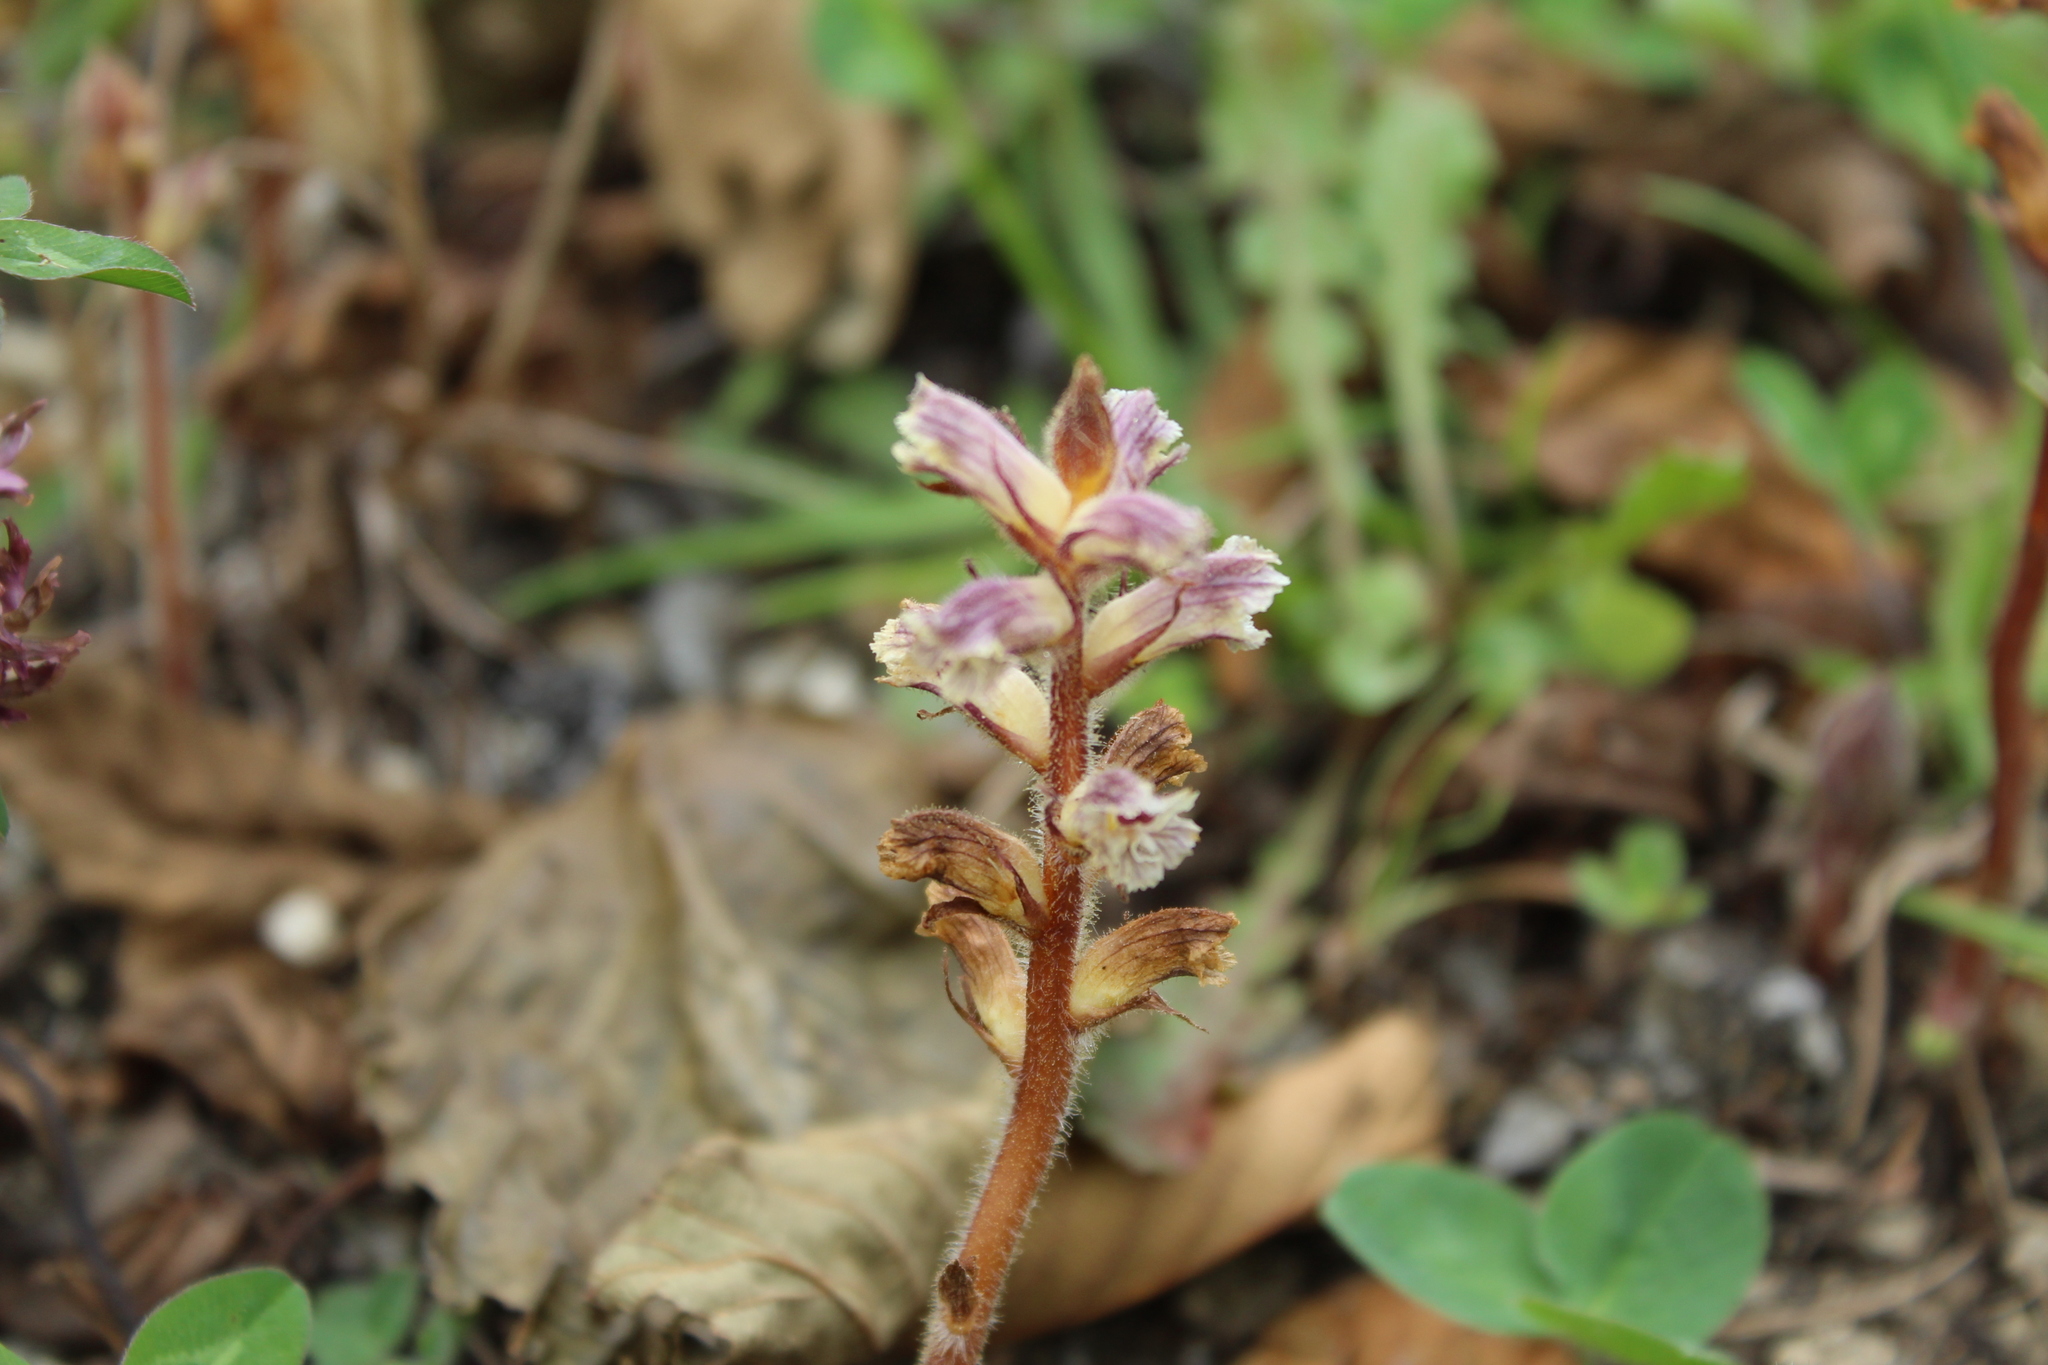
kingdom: Plantae
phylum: Tracheophyta
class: Magnoliopsida
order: Lamiales
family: Orobanchaceae
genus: Orobanche
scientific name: Orobanche minor
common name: Common broomrape
